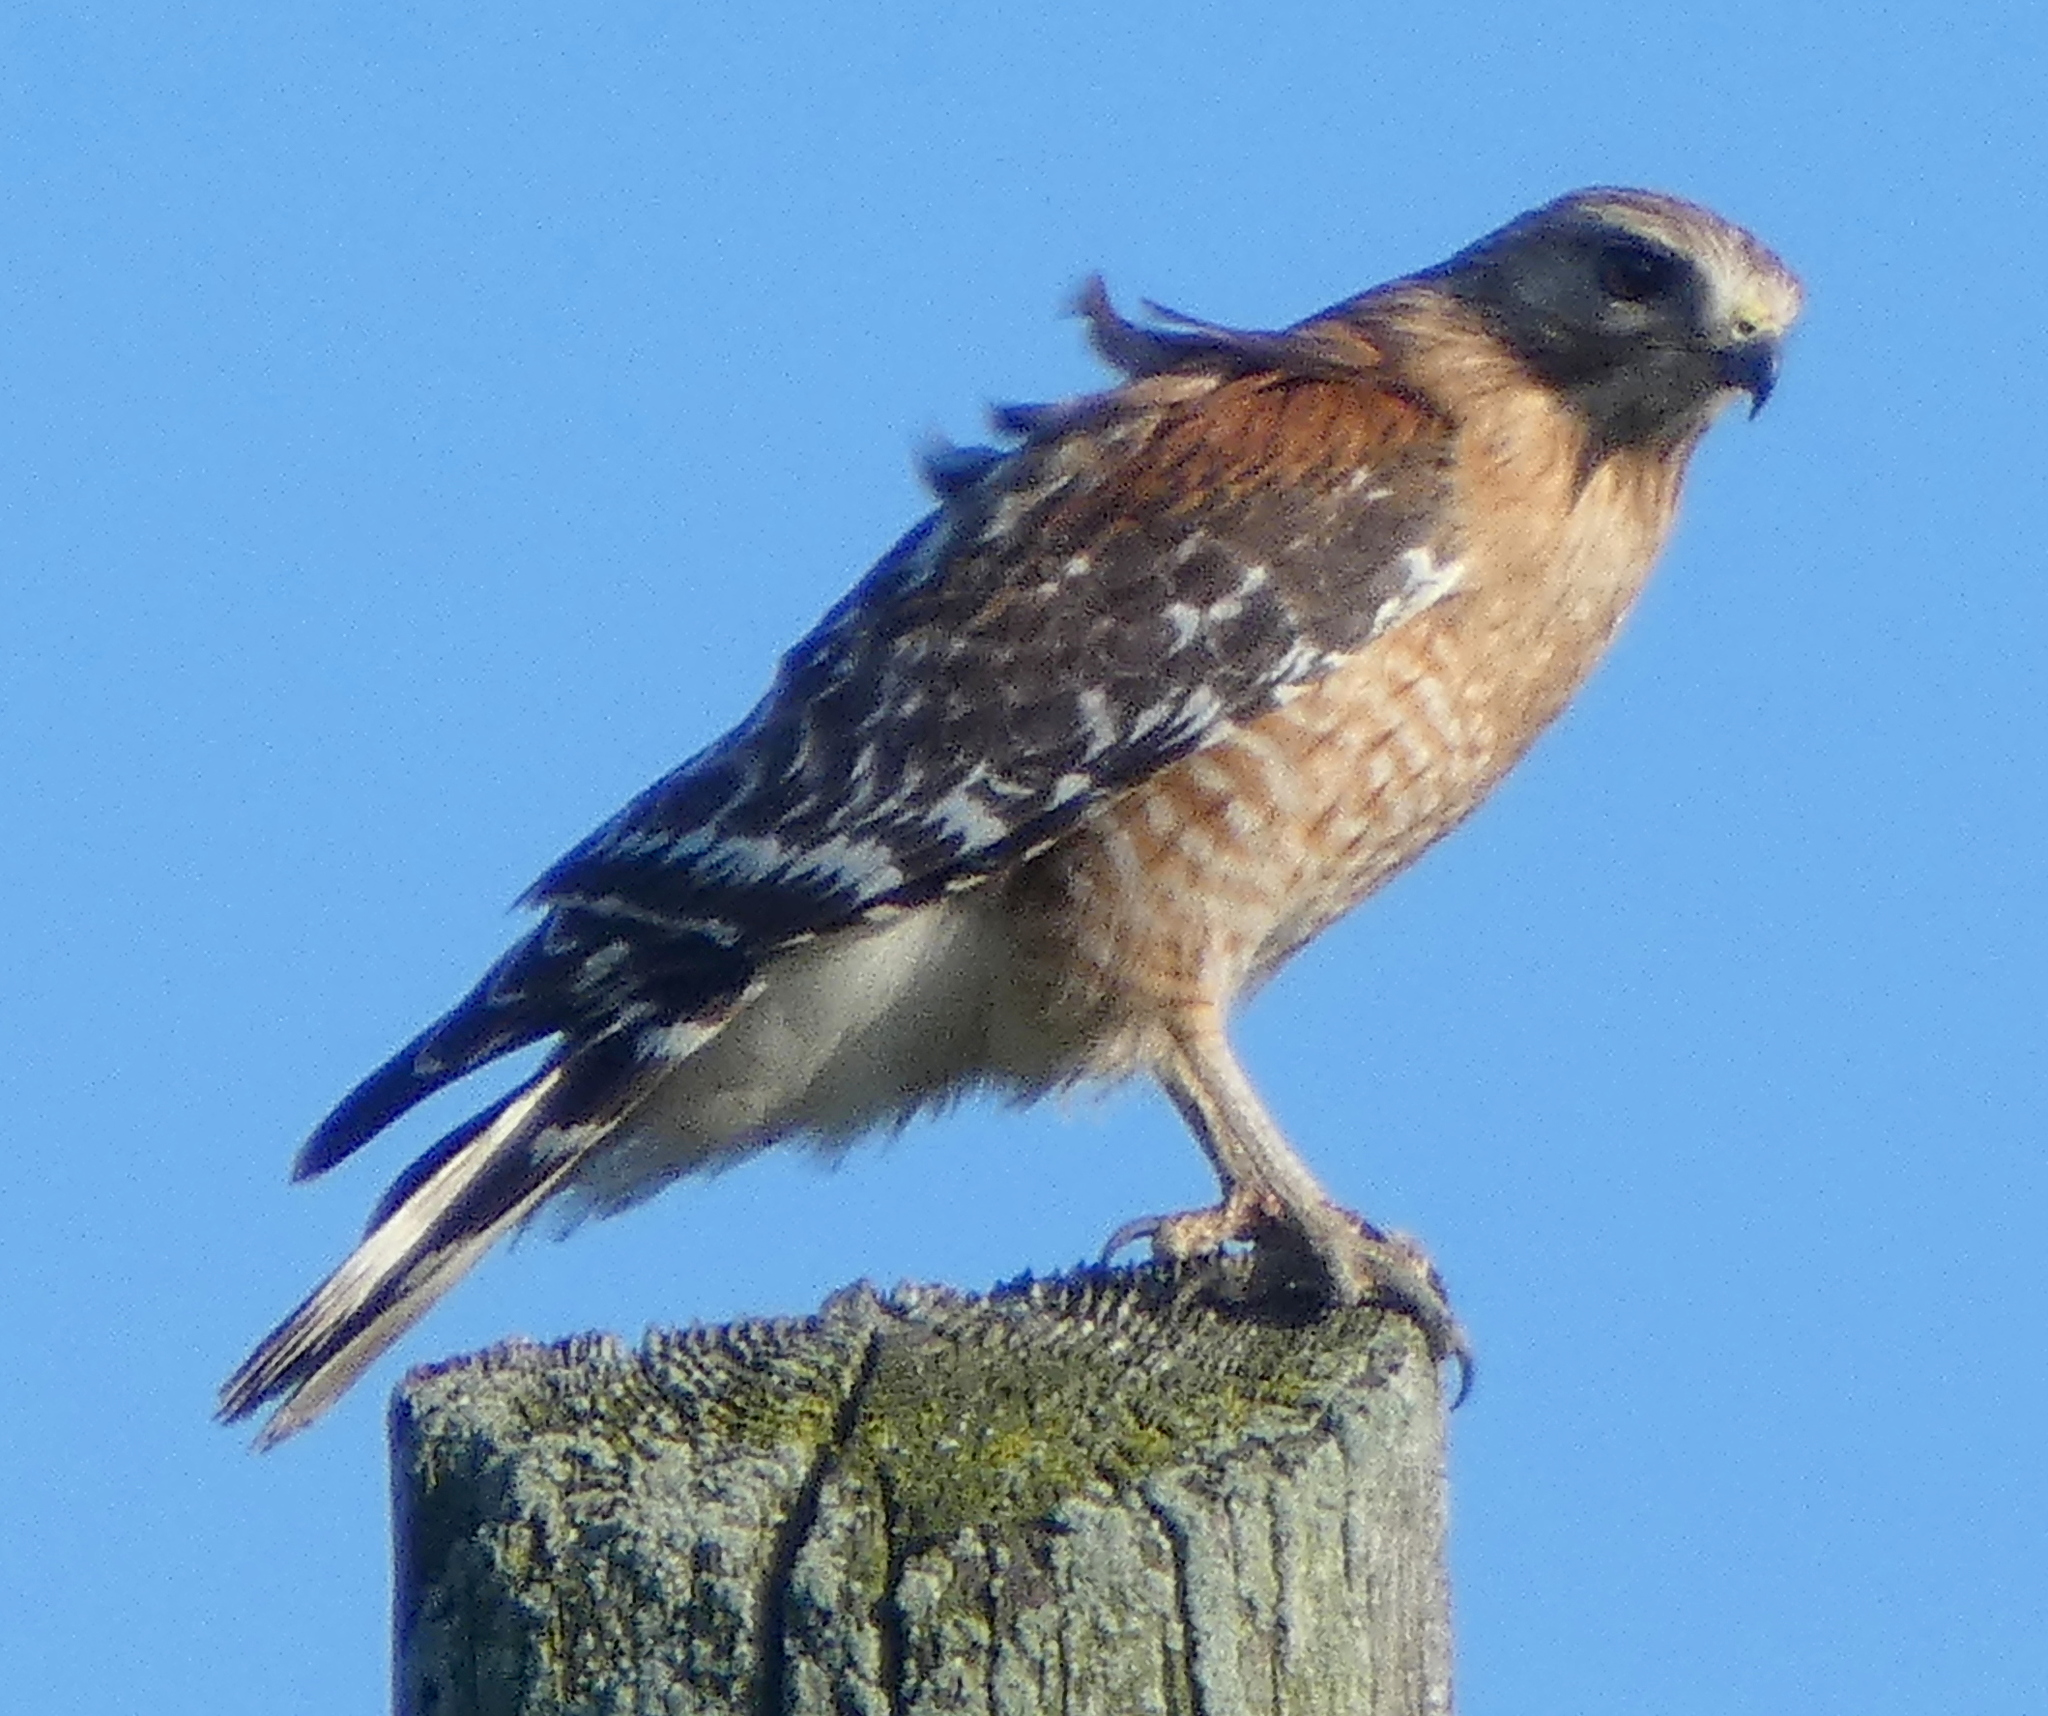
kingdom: Animalia
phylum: Chordata
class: Aves
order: Accipitriformes
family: Accipitridae
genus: Buteo
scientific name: Buteo lineatus
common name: Red-shouldered hawk
